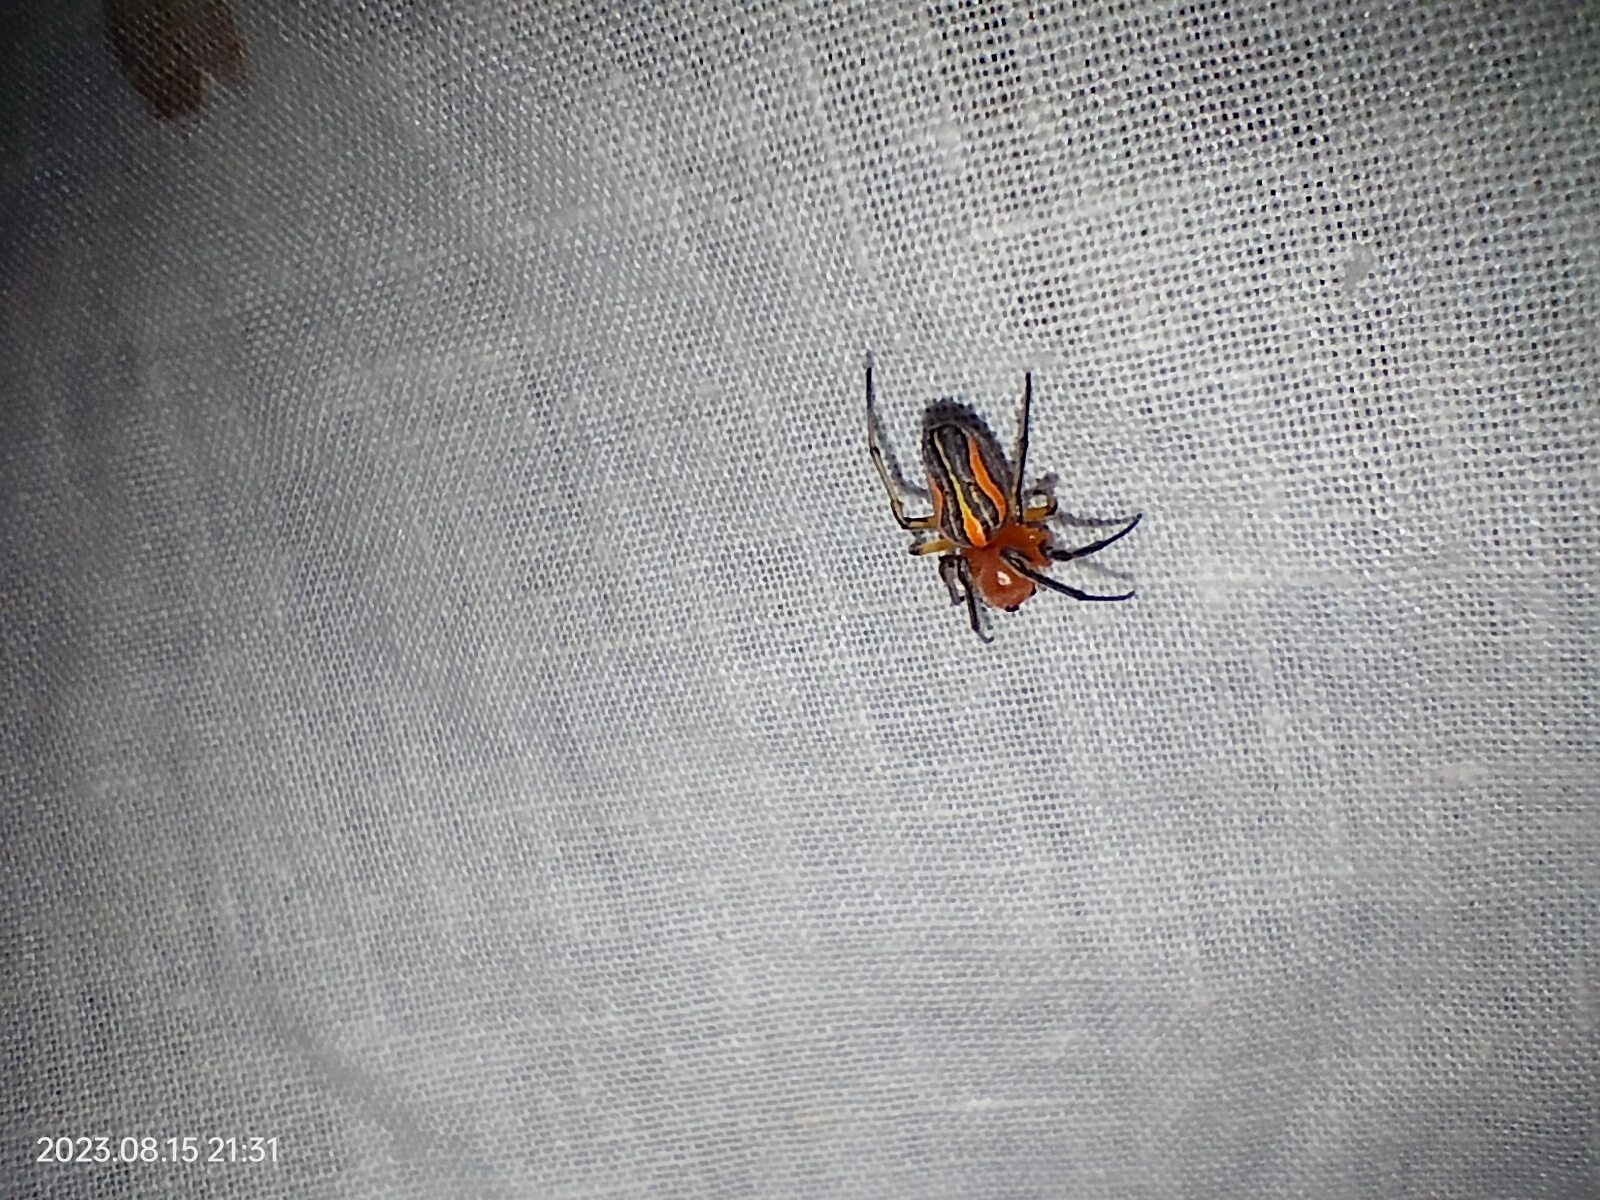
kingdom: Animalia
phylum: Arthropoda
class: Arachnida
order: Araneae
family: Araneidae
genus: Alpaida
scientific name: Alpaida coroico
